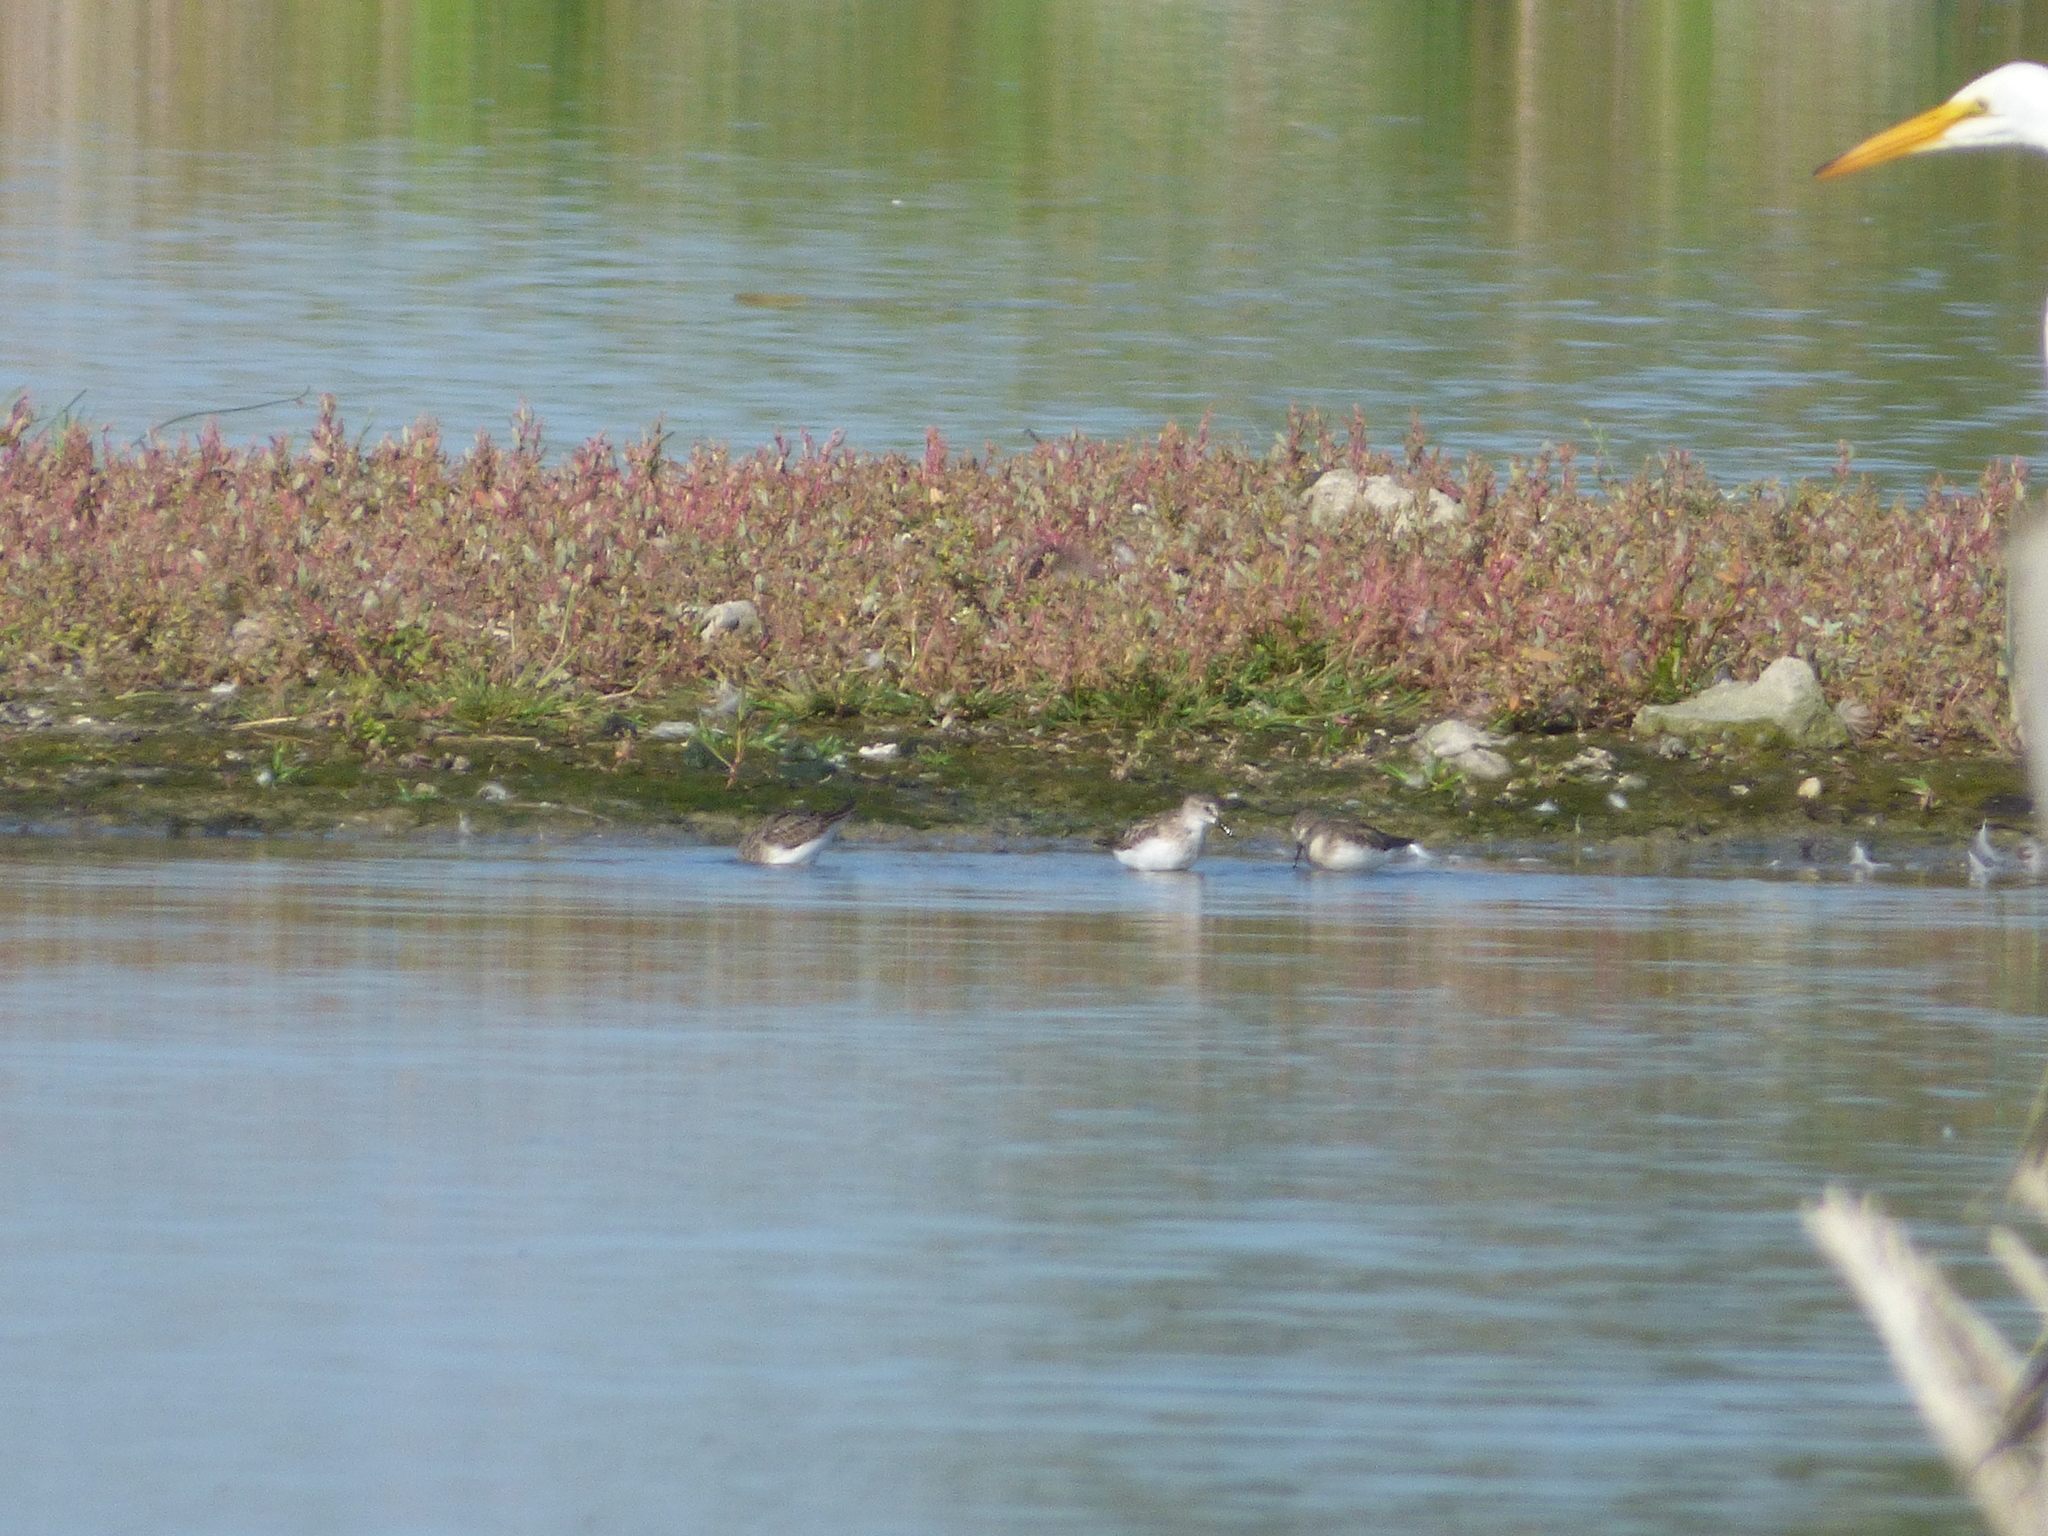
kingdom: Animalia
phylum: Chordata
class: Aves
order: Charadriiformes
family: Scolopacidae
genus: Calidris
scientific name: Calidris pusilla
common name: Semipalmated sandpiper
